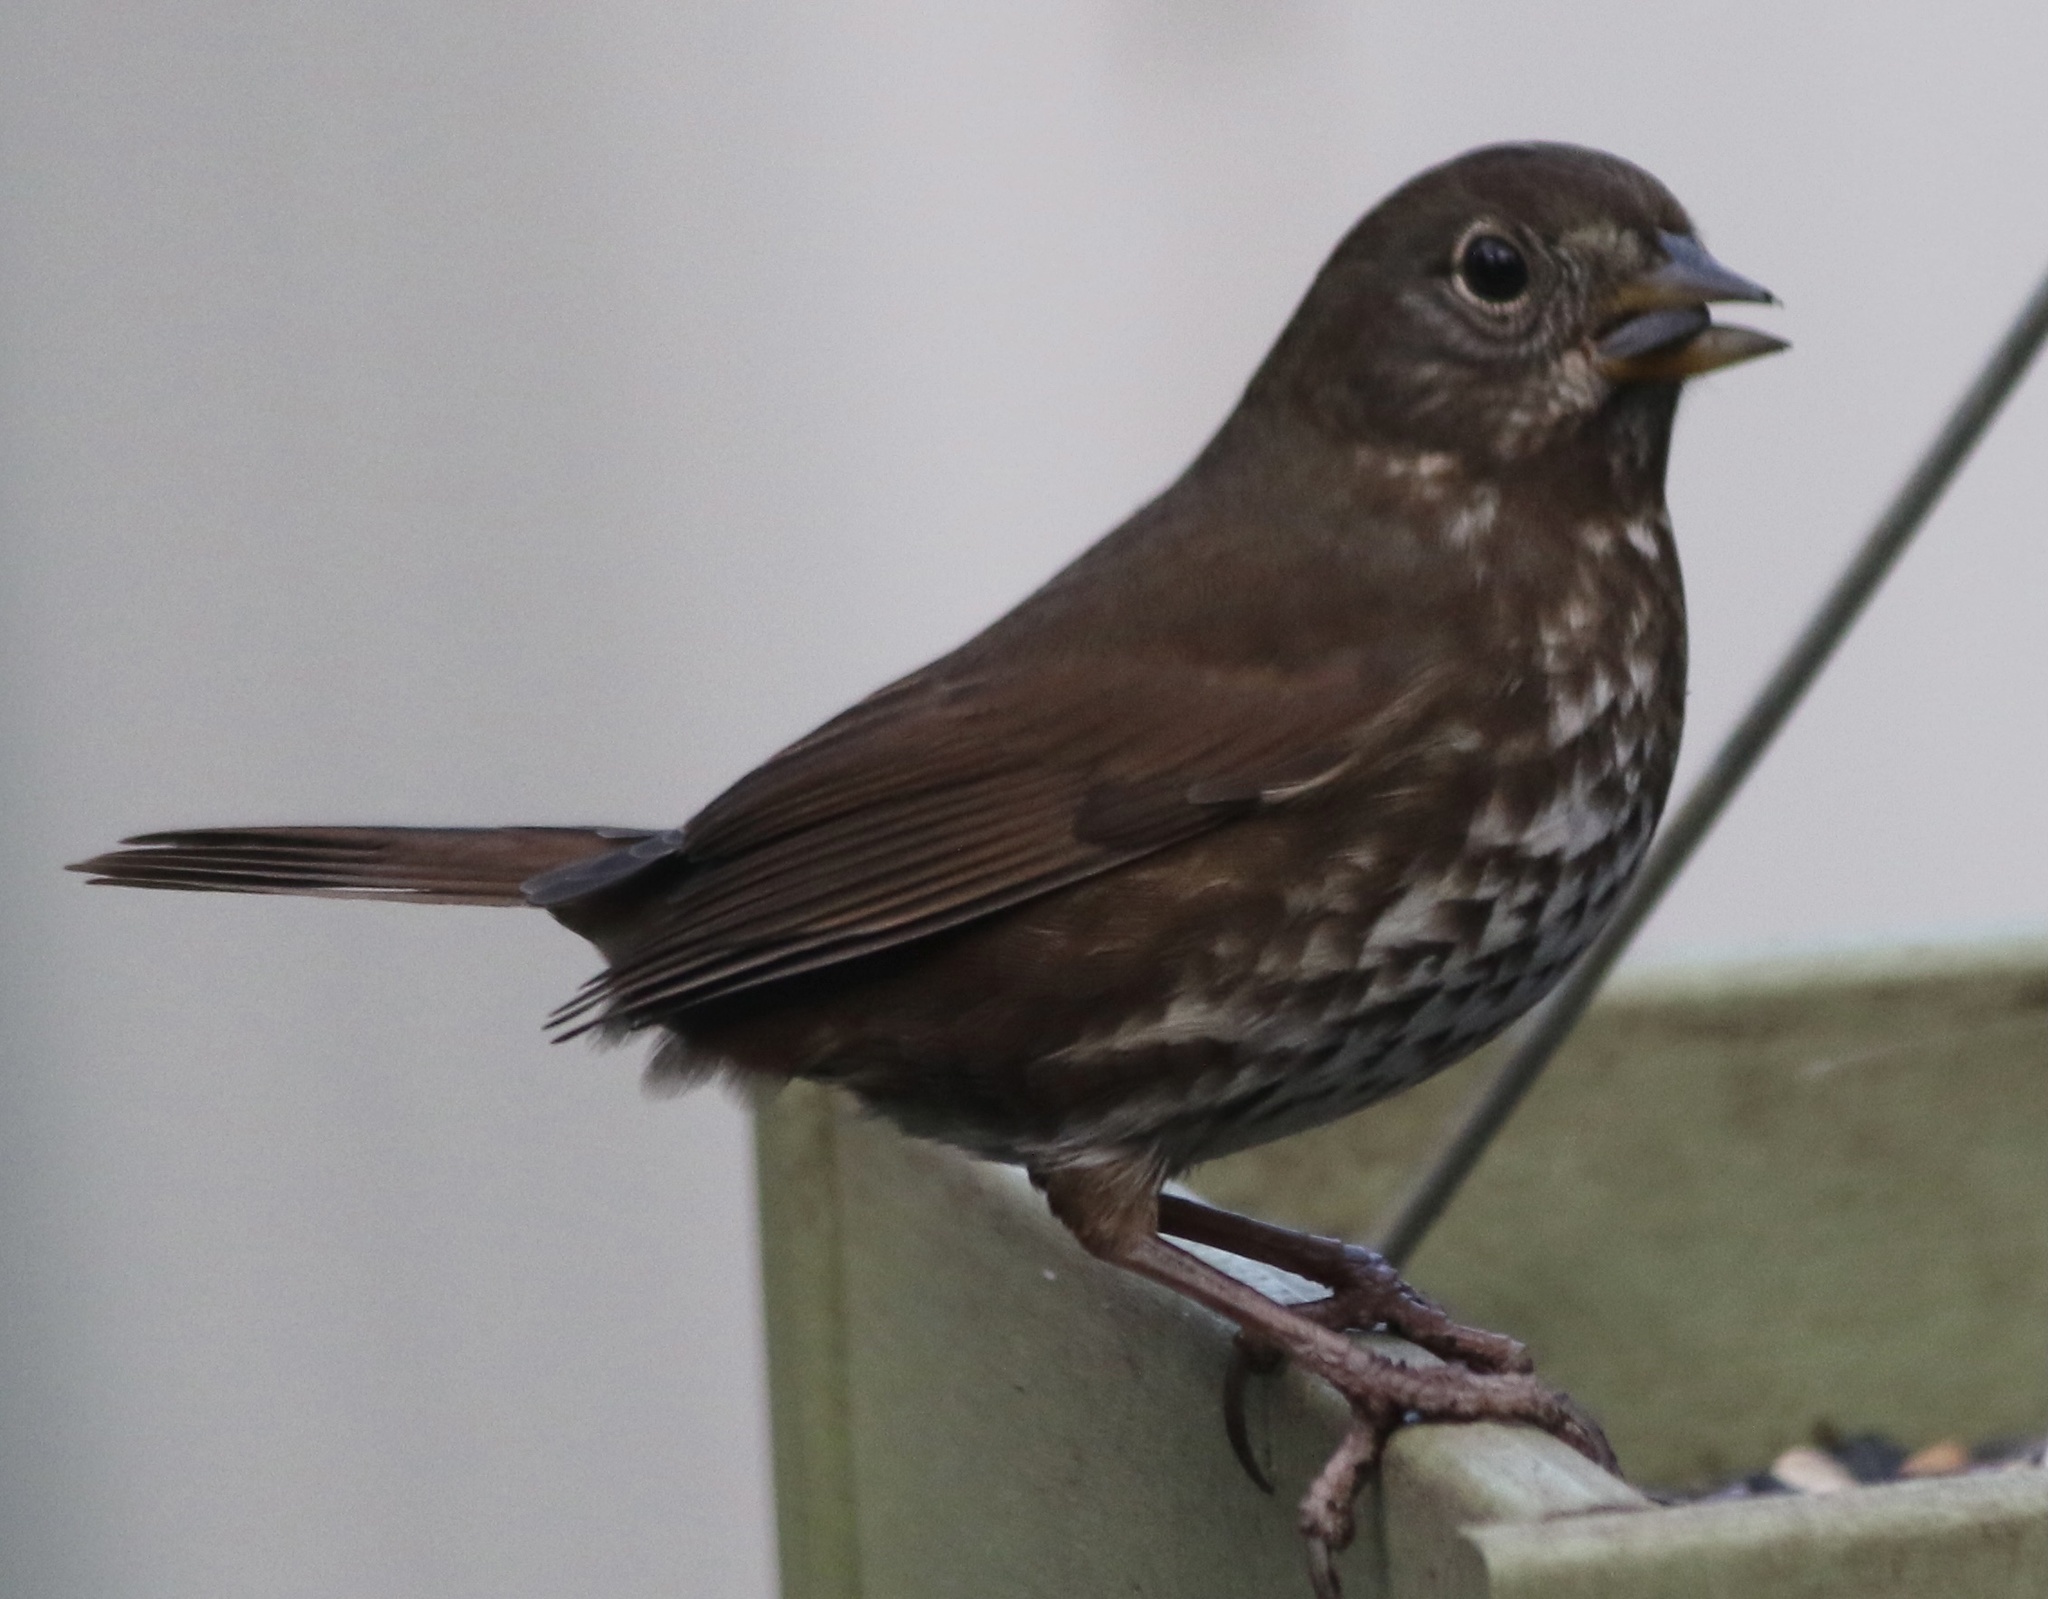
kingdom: Animalia
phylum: Chordata
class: Aves
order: Passeriformes
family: Passerellidae
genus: Passerella
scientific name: Passerella iliaca
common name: Fox sparrow
